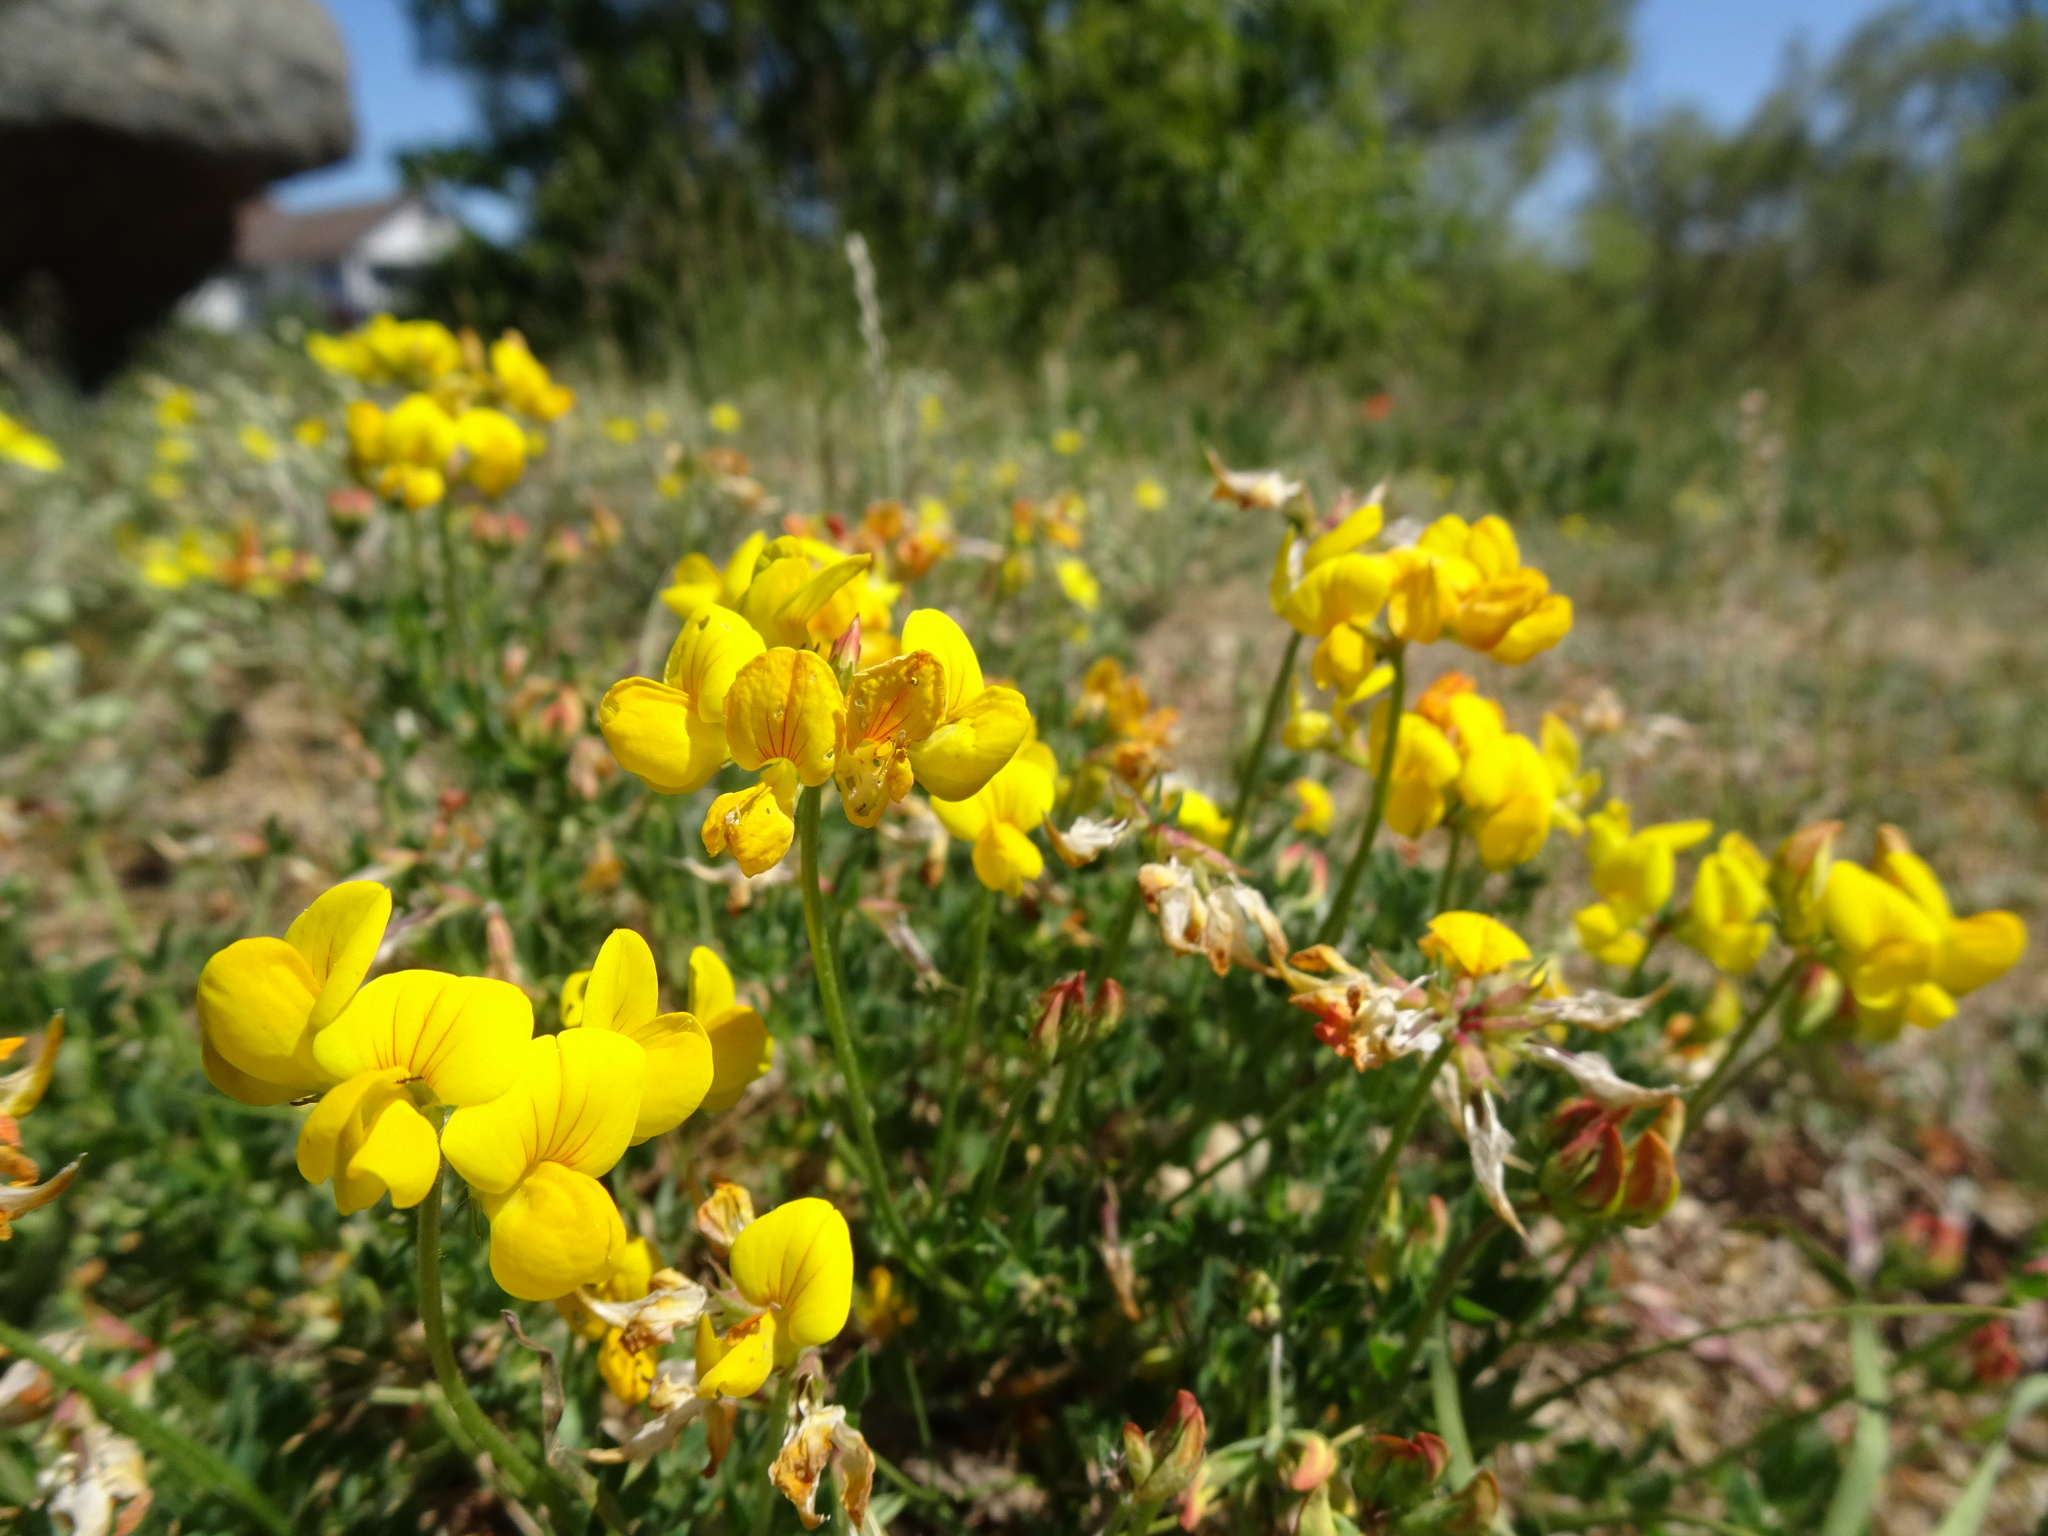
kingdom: Plantae
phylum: Tracheophyta
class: Magnoliopsida
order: Fabales
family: Fabaceae
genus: Lotus
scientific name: Lotus corniculatus
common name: Common bird's-foot-trefoil
